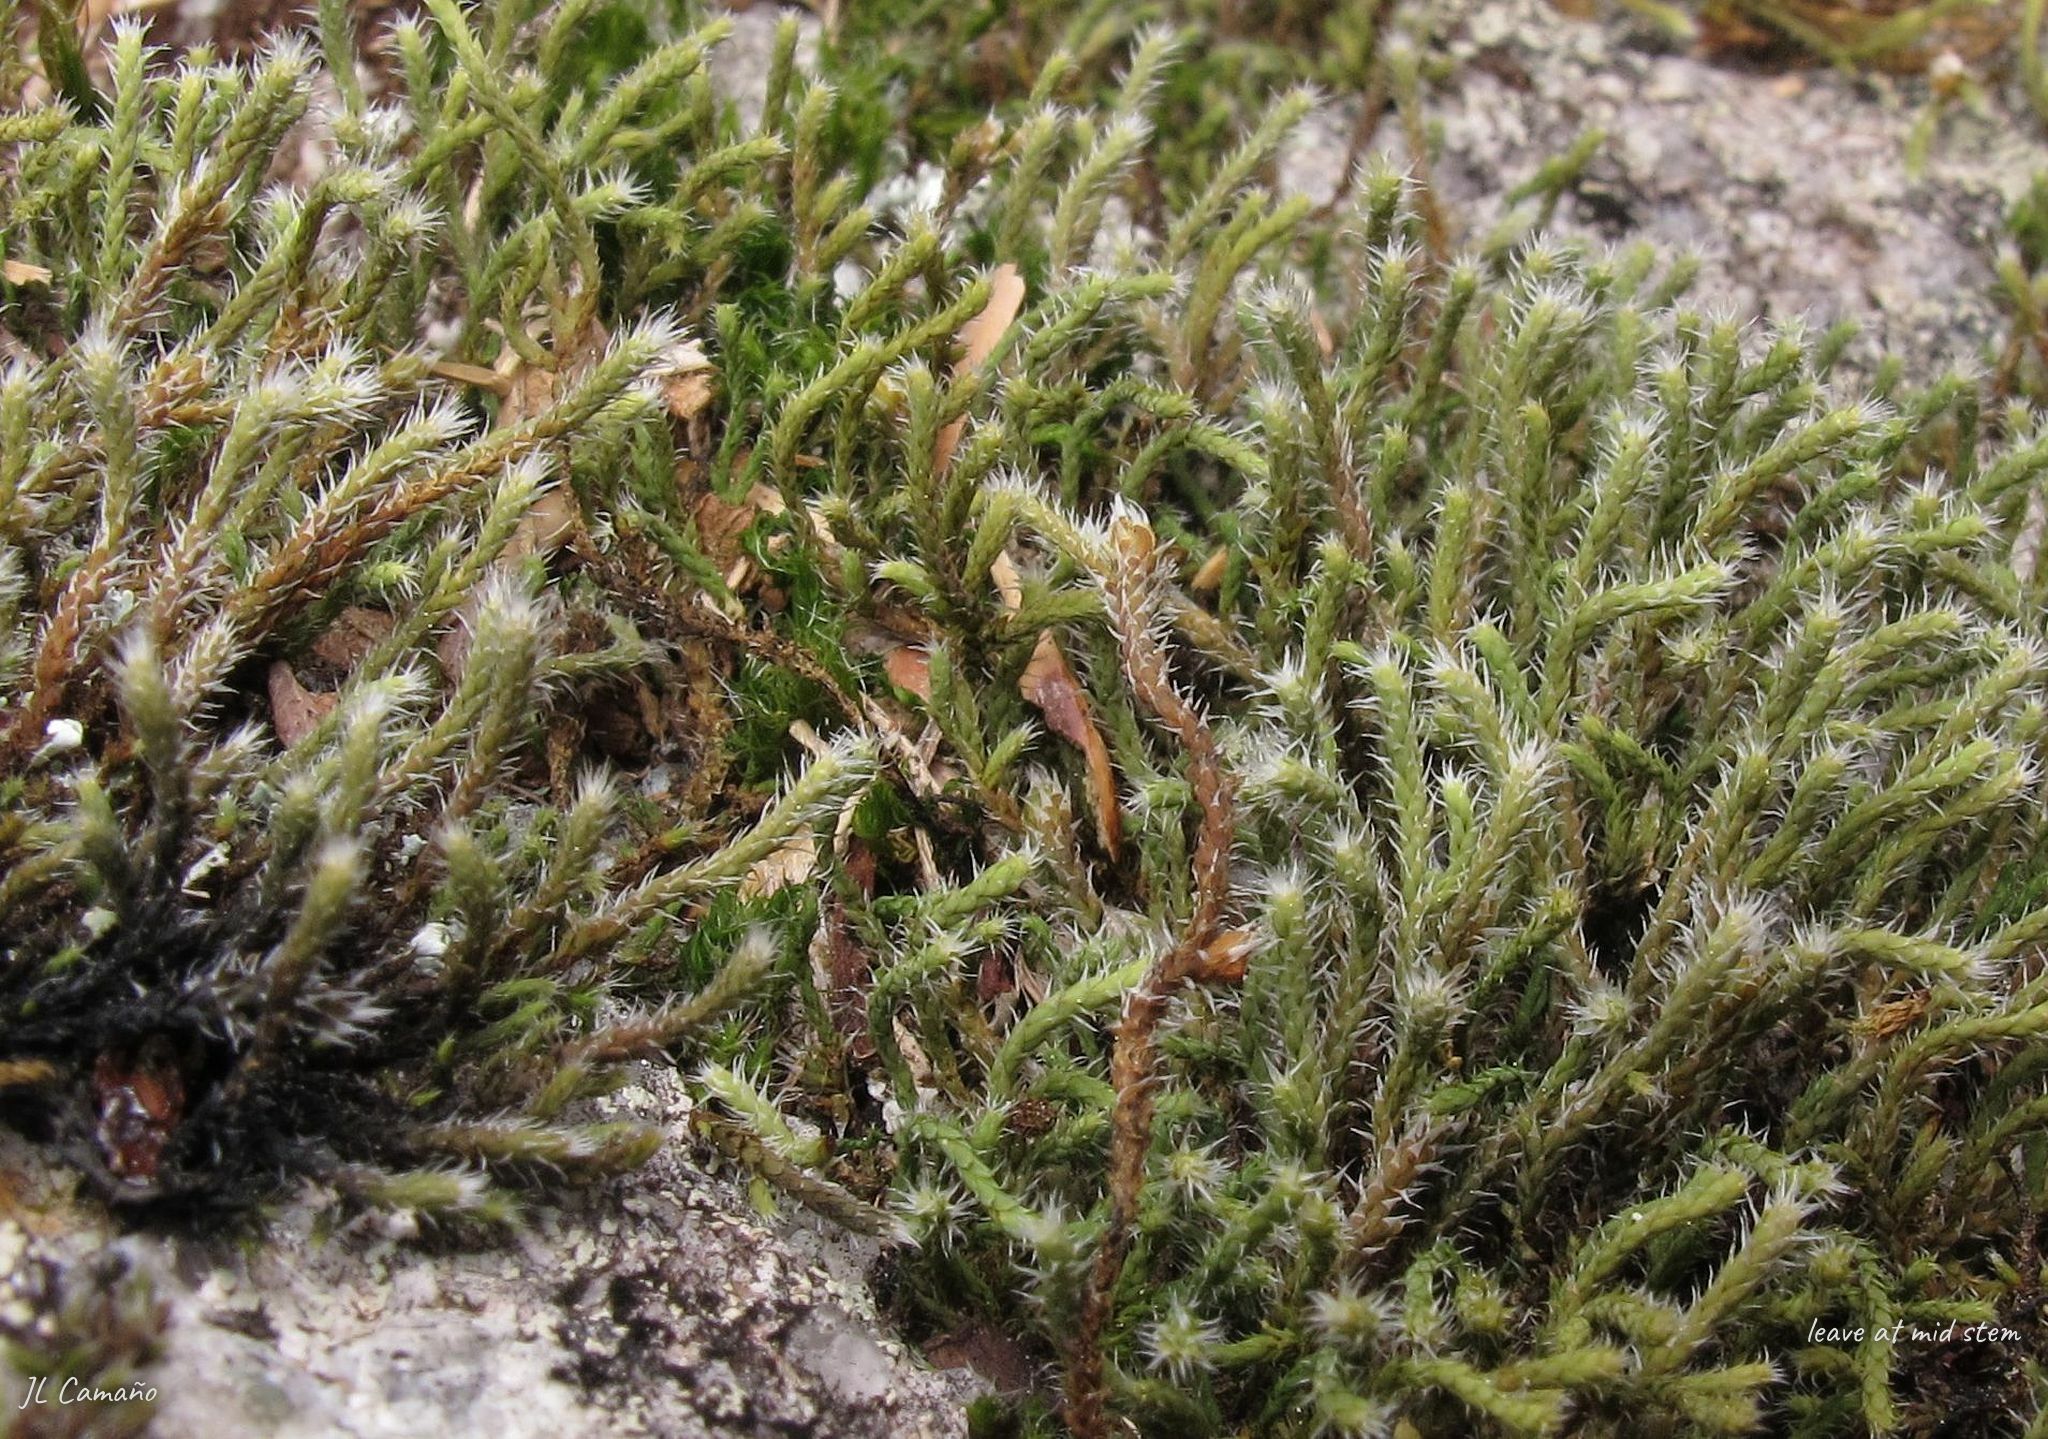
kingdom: Plantae
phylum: Bryophyta
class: Bryopsida
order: Hedwigiales
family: Hedwigiaceae
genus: Hedwigia
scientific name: Hedwigia stellata
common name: Starry hoar-moss
